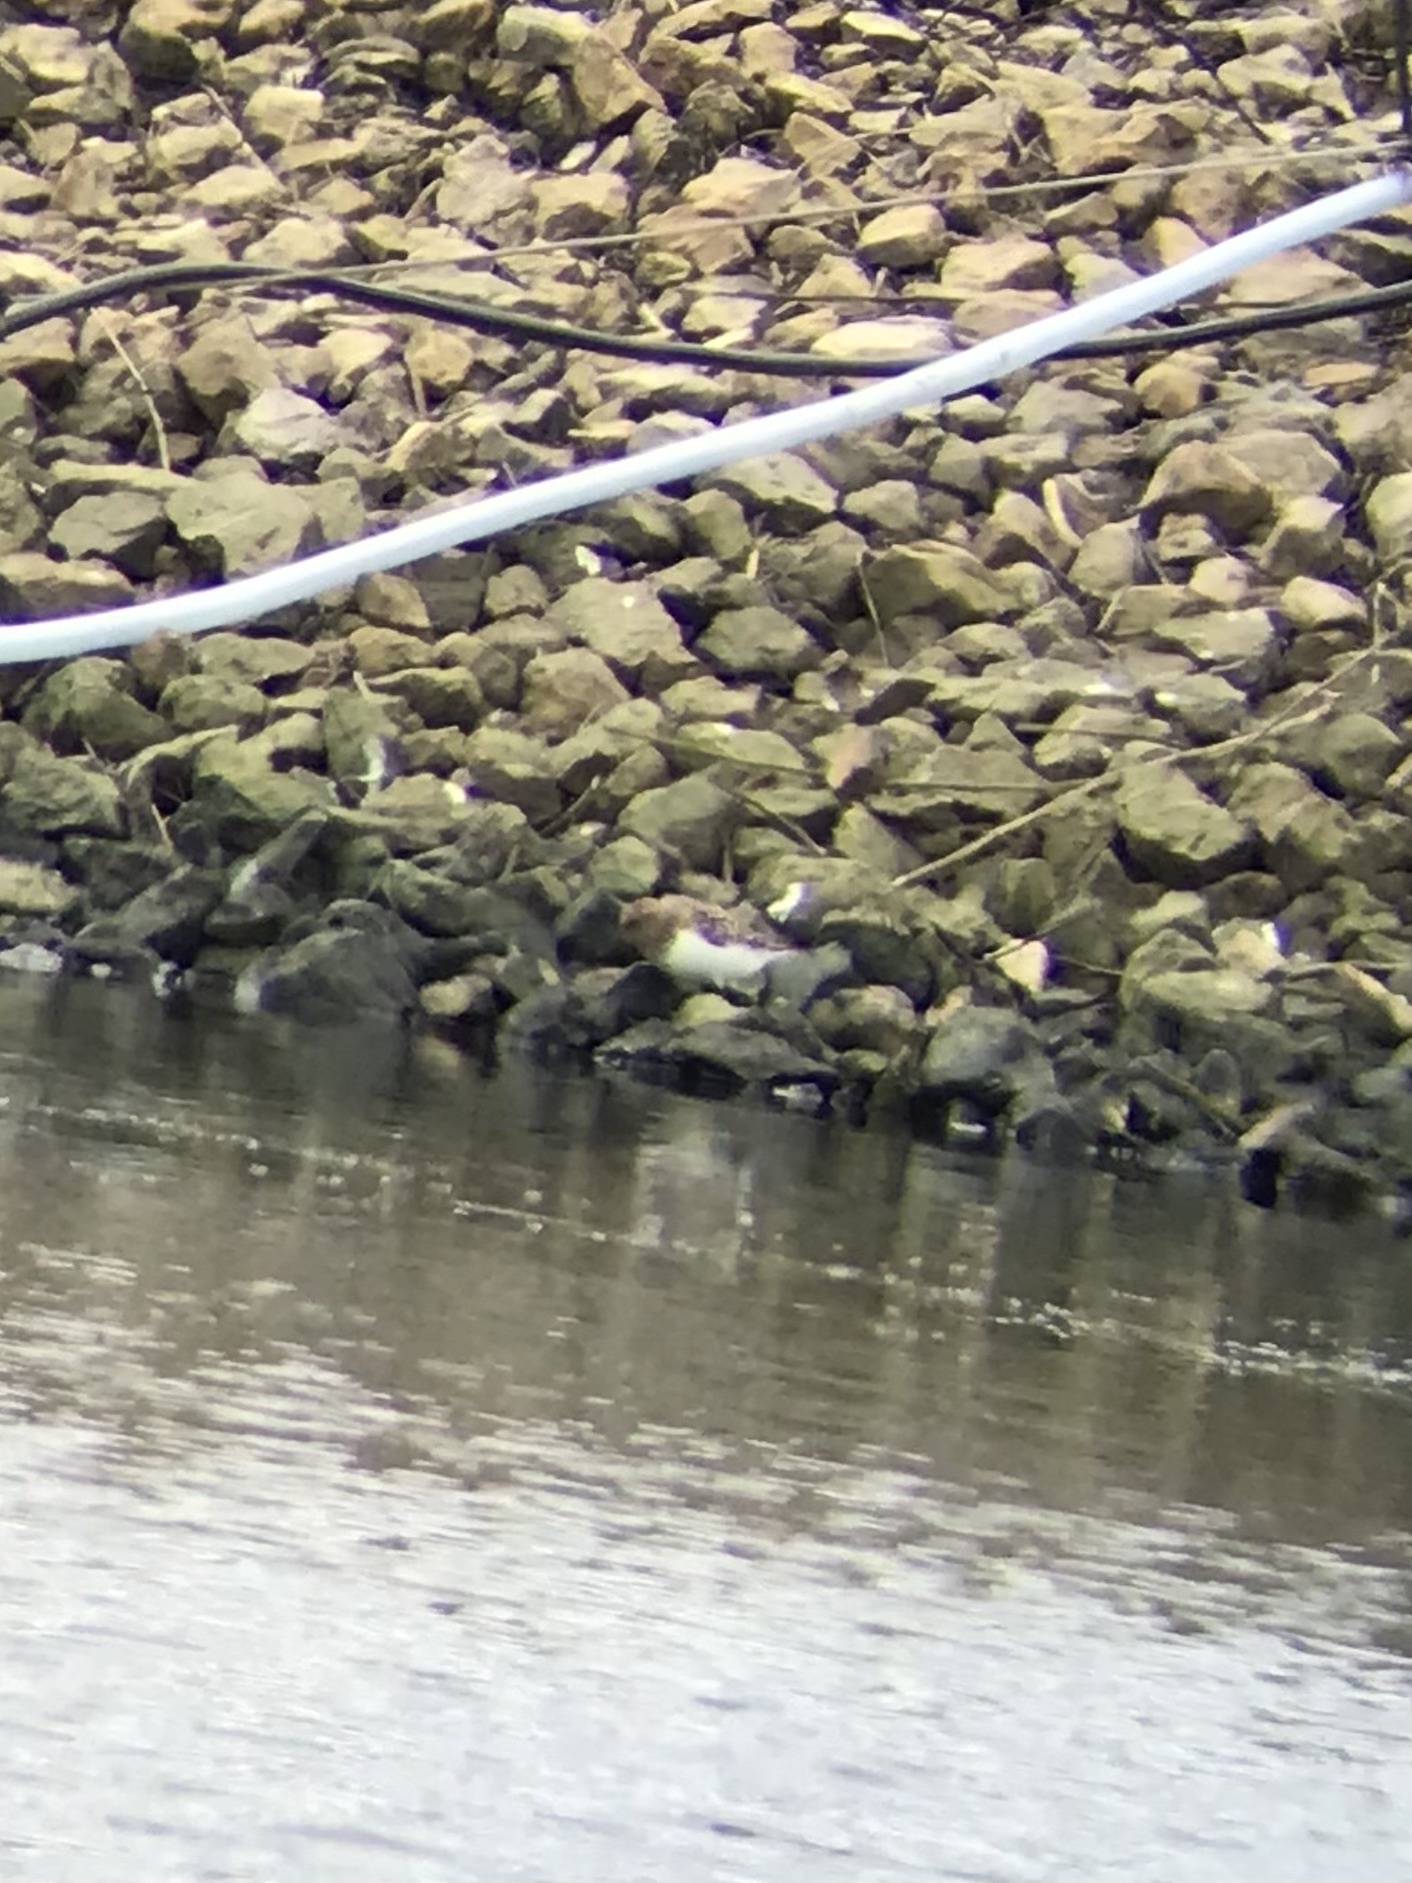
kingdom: Animalia
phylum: Chordata
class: Aves
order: Charadriiformes
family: Scolopacidae
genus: Calidris
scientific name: Calidris alba
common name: Sanderling
